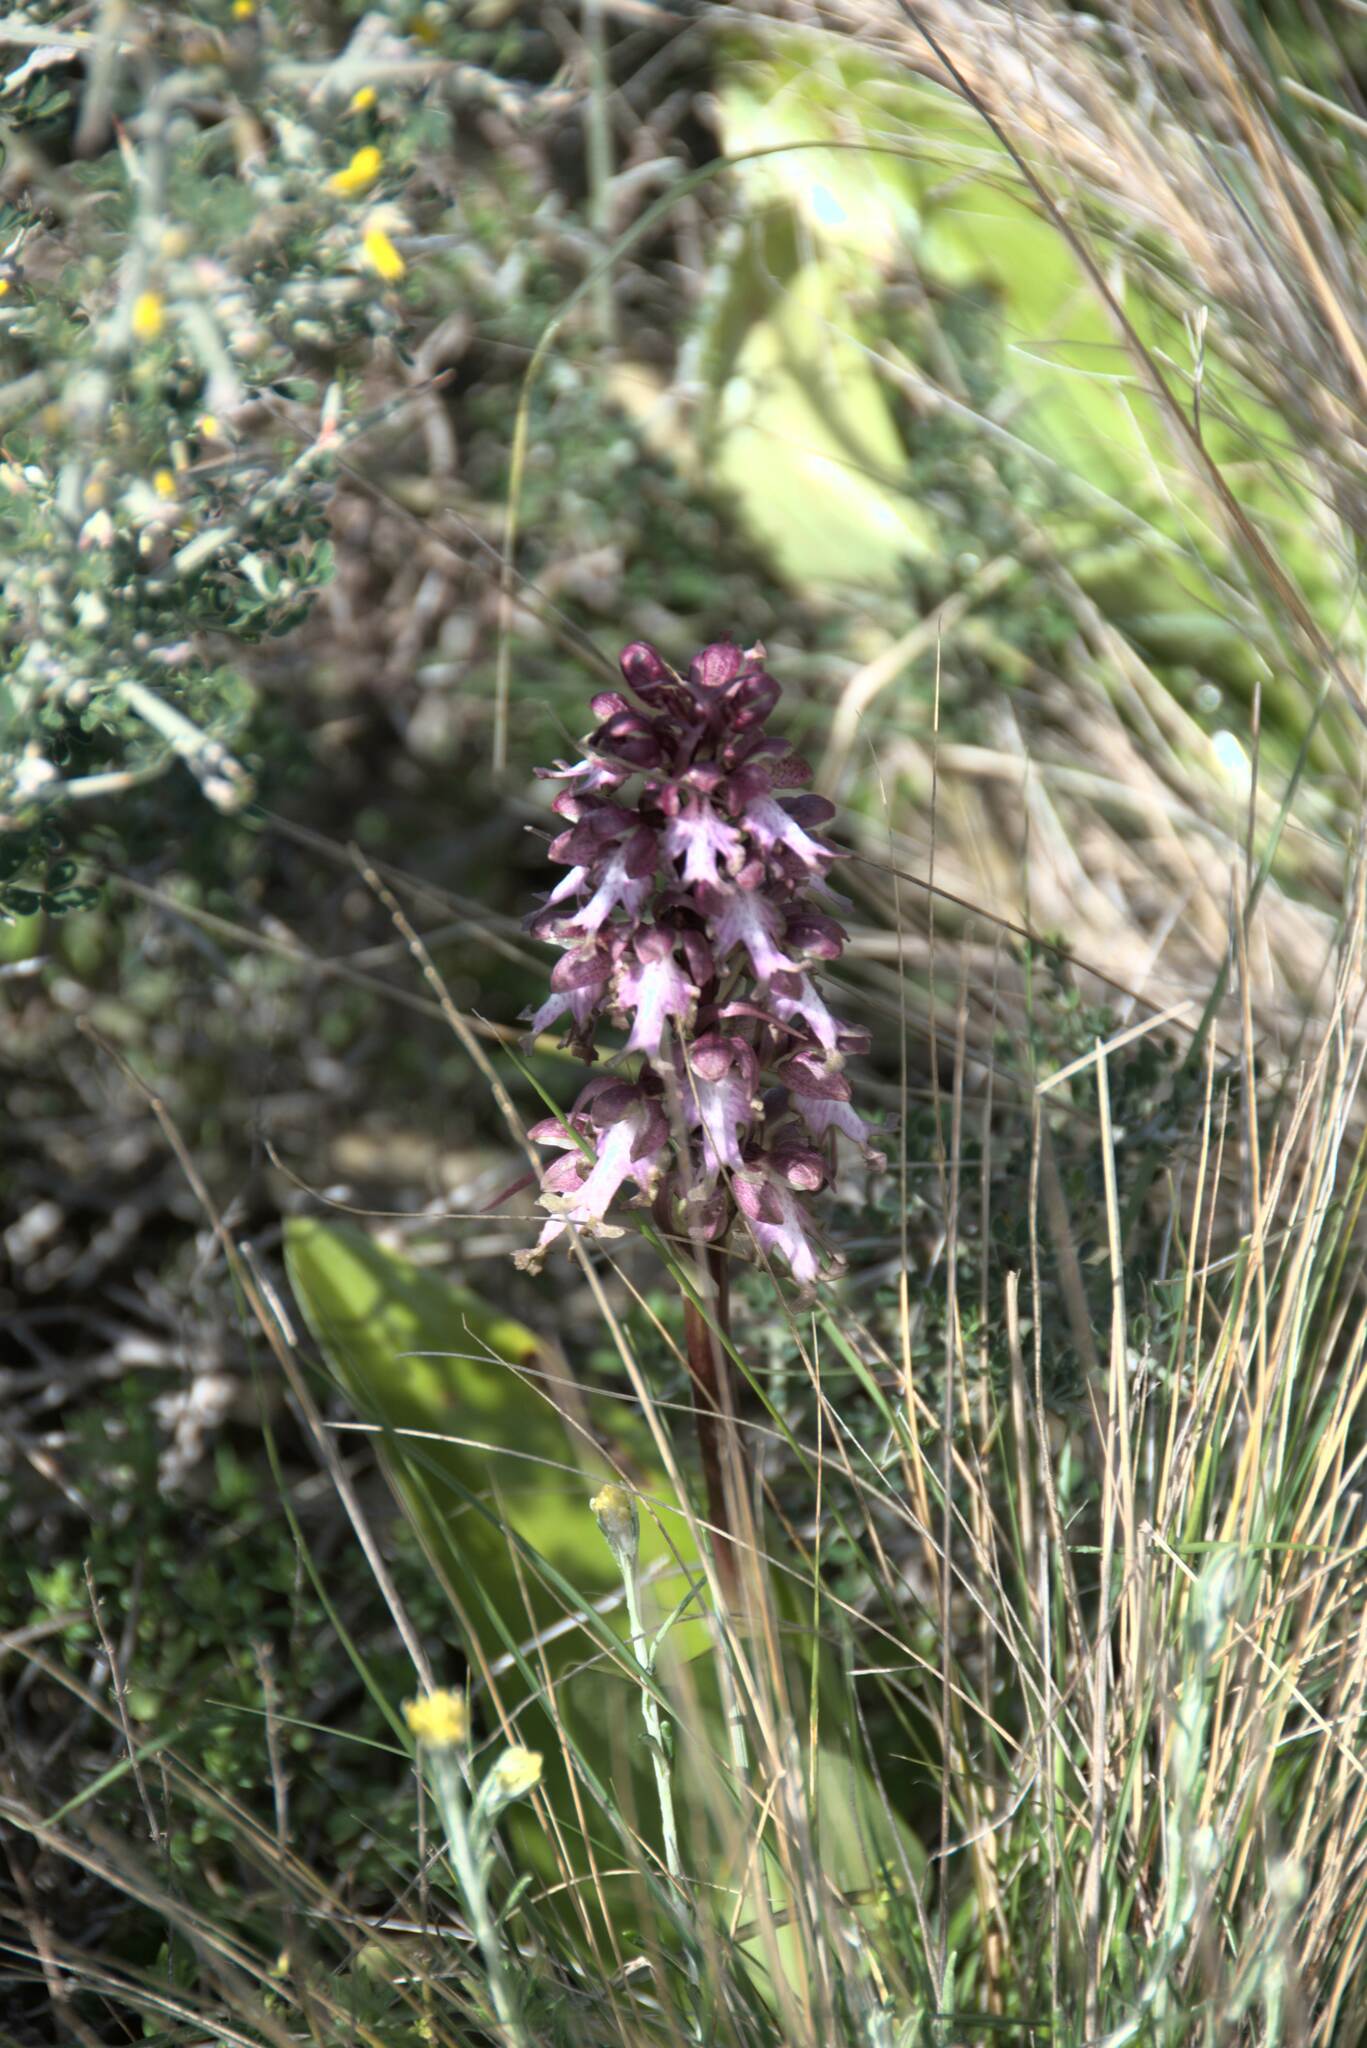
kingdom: Plantae
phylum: Tracheophyta
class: Liliopsida
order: Asparagales
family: Orchidaceae
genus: Himantoglossum
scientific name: Himantoglossum robertianum
